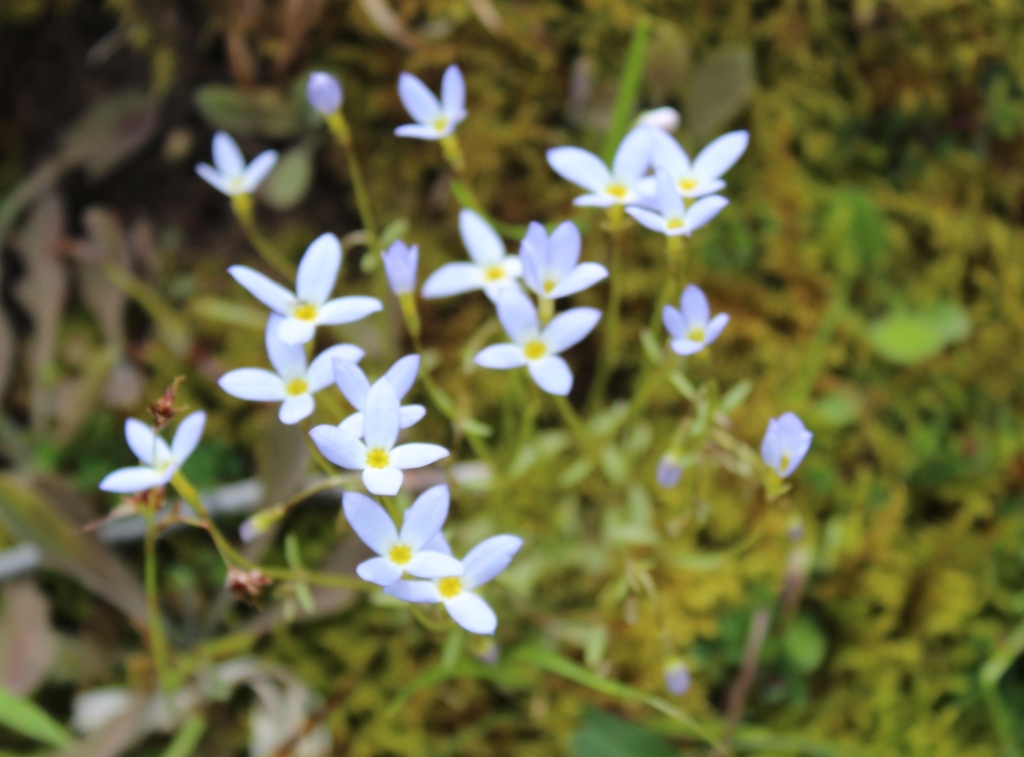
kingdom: Plantae
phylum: Tracheophyta
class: Magnoliopsida
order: Gentianales
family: Rubiaceae
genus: Houstonia
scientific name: Houstonia caerulea
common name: Bluets
